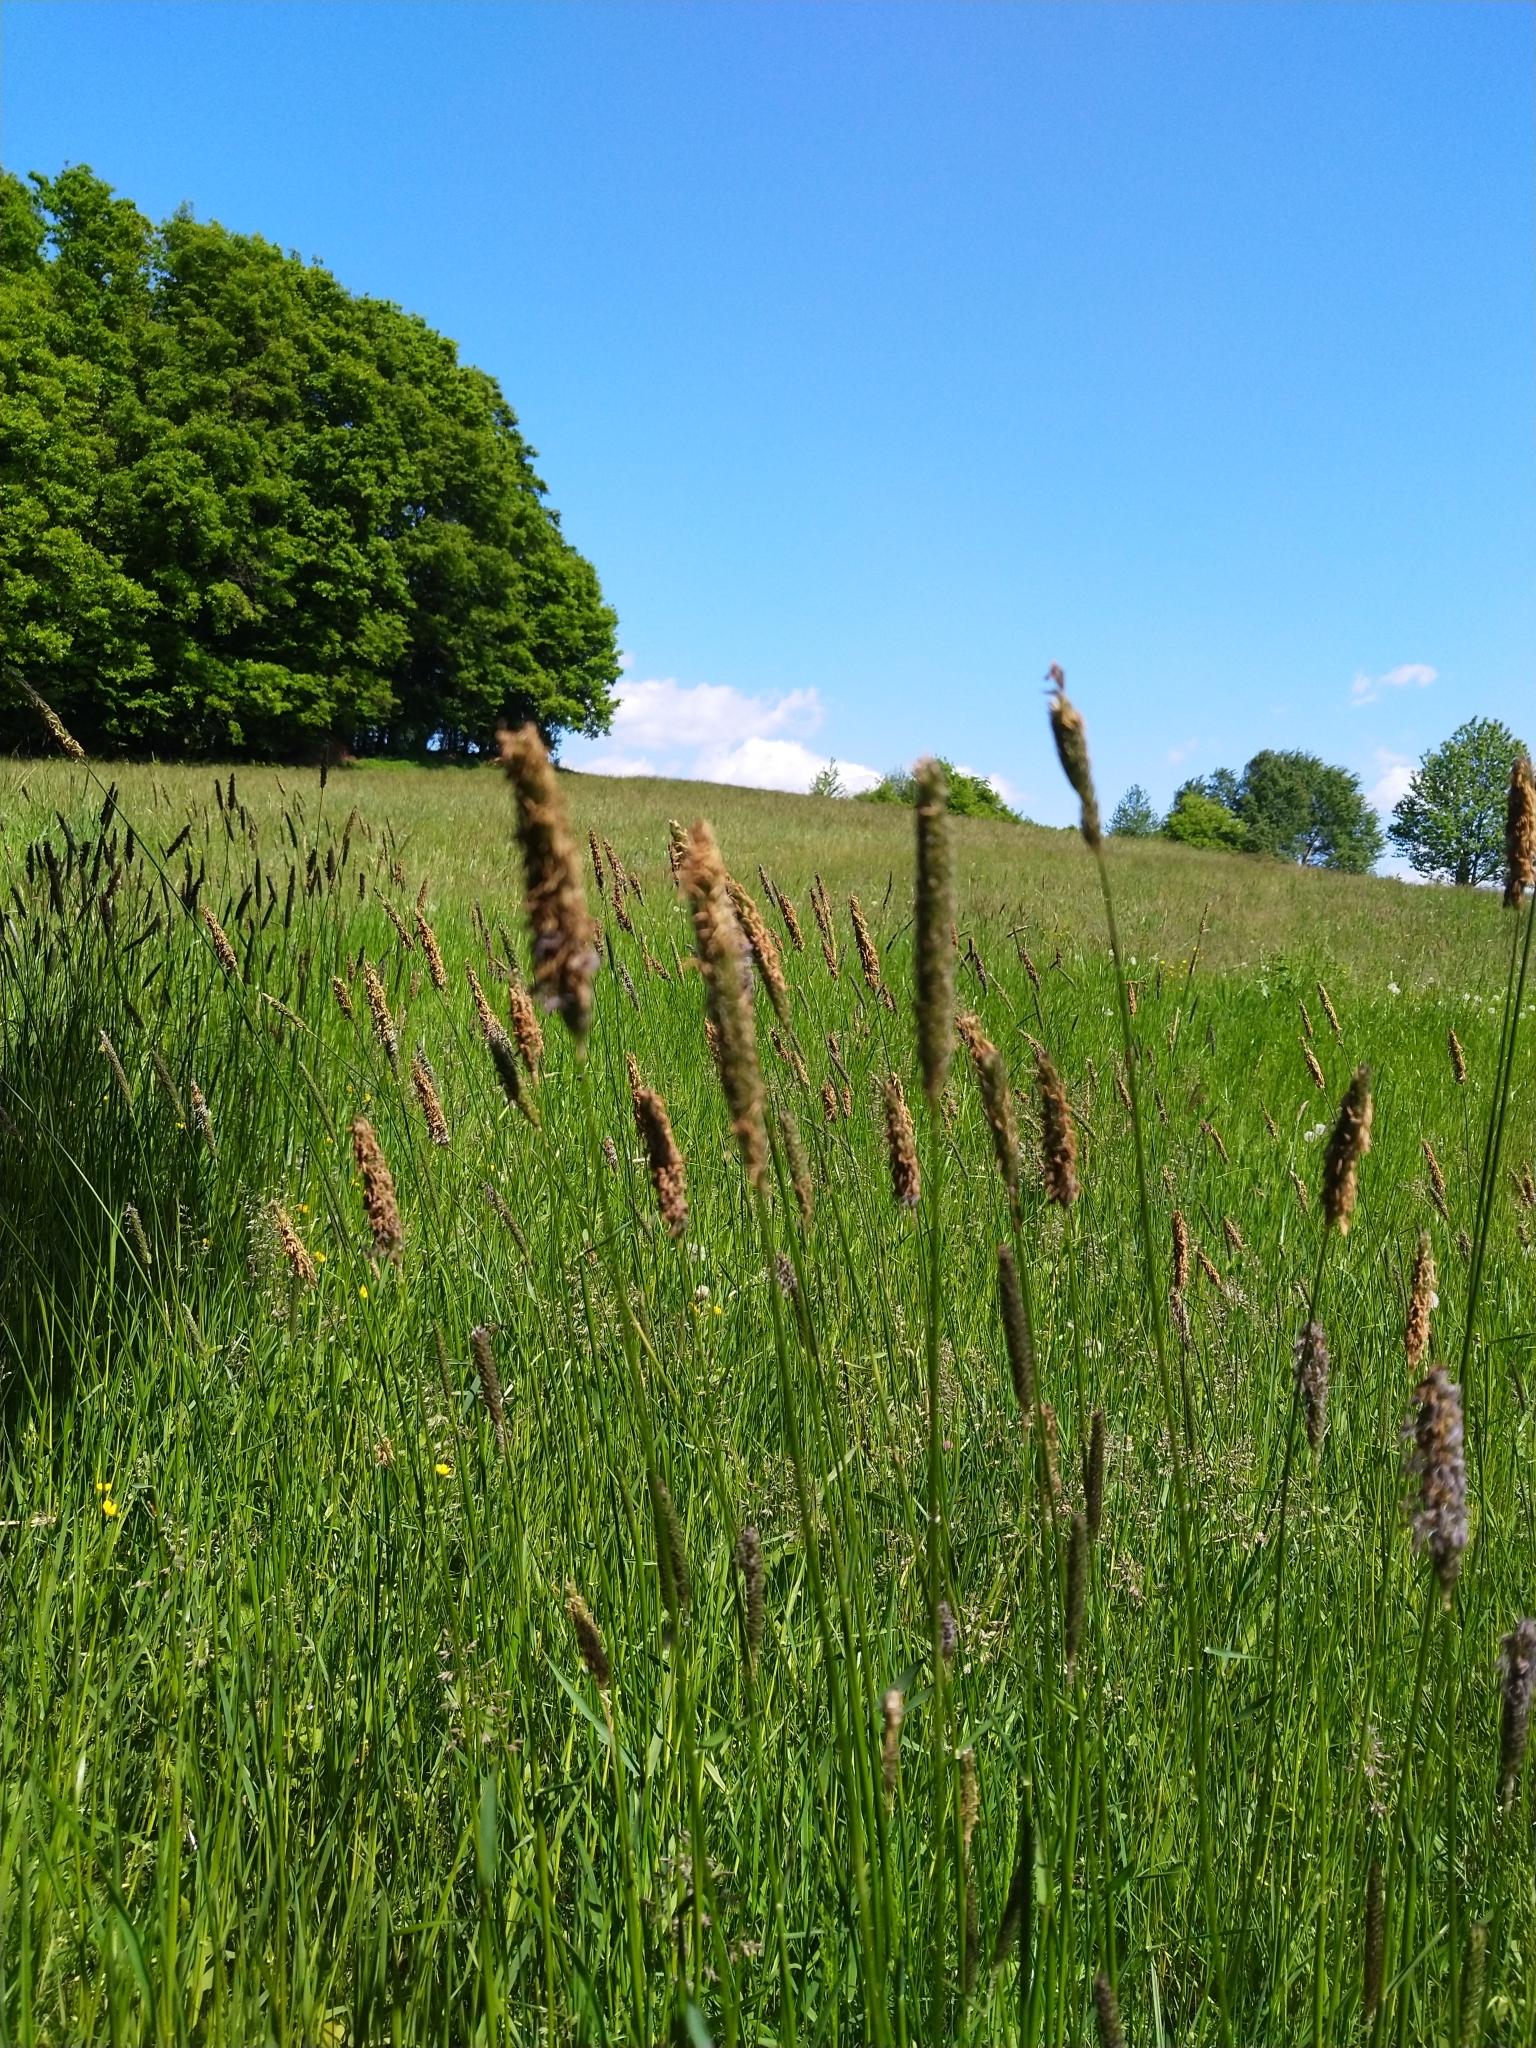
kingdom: Plantae
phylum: Tracheophyta
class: Liliopsida
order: Poales
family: Poaceae
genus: Alopecurus
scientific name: Alopecurus pratensis
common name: Meadow foxtail
